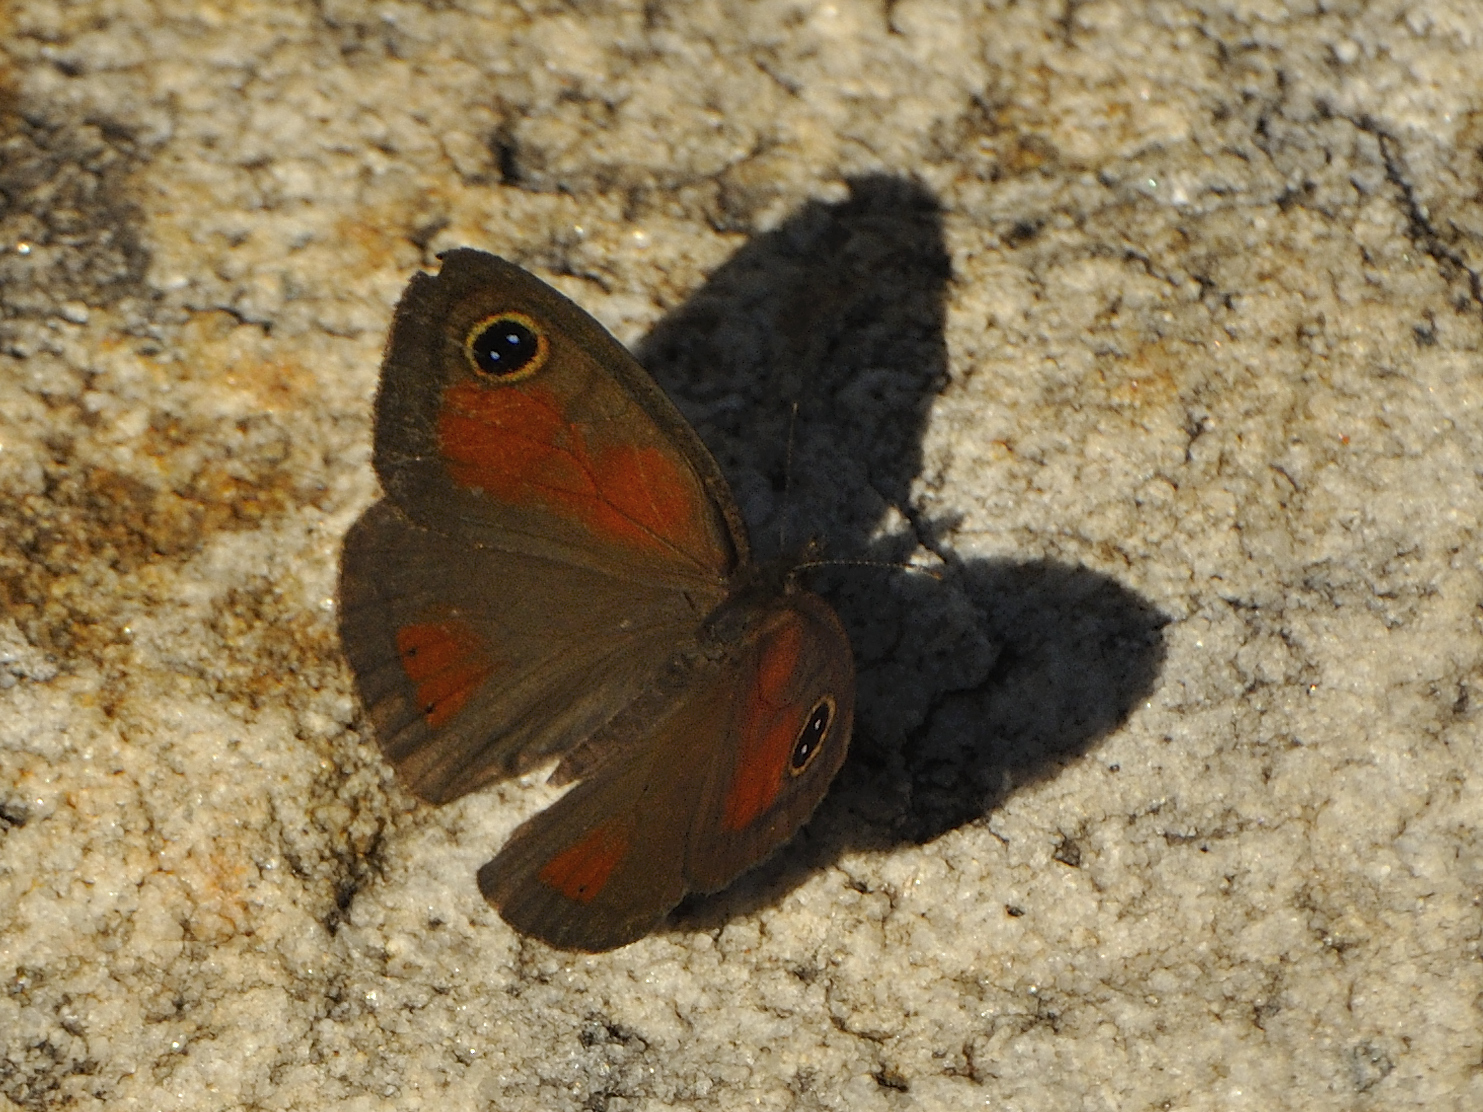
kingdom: Animalia
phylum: Arthropoda
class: Insecta
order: Lepidoptera
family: Nymphalidae
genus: Pseudonympha
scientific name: Pseudonympha detecta
